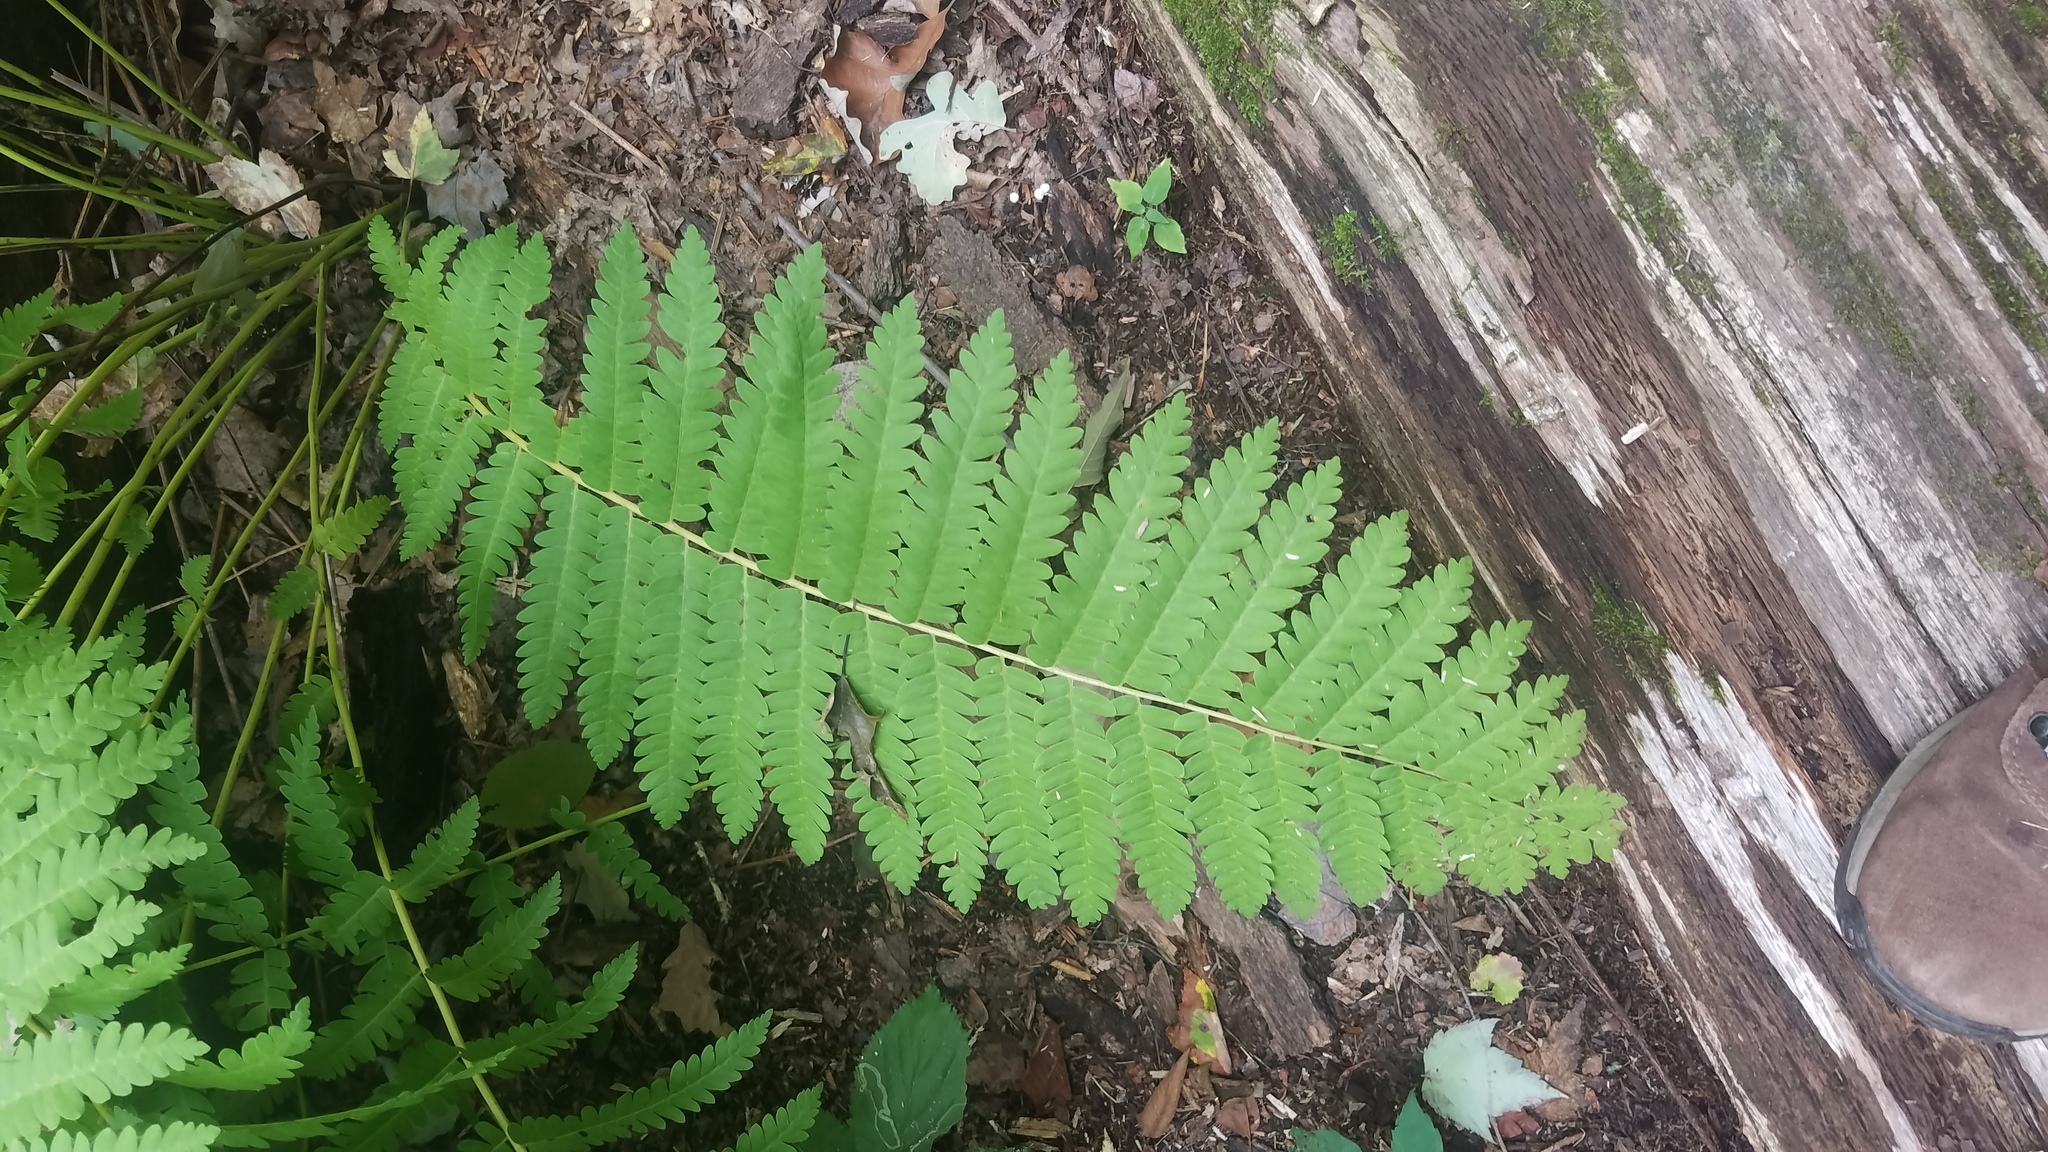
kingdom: Plantae
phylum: Tracheophyta
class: Polypodiopsida
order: Osmundales
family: Osmundaceae
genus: Claytosmunda
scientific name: Claytosmunda claytoniana
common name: Clayton's fern
